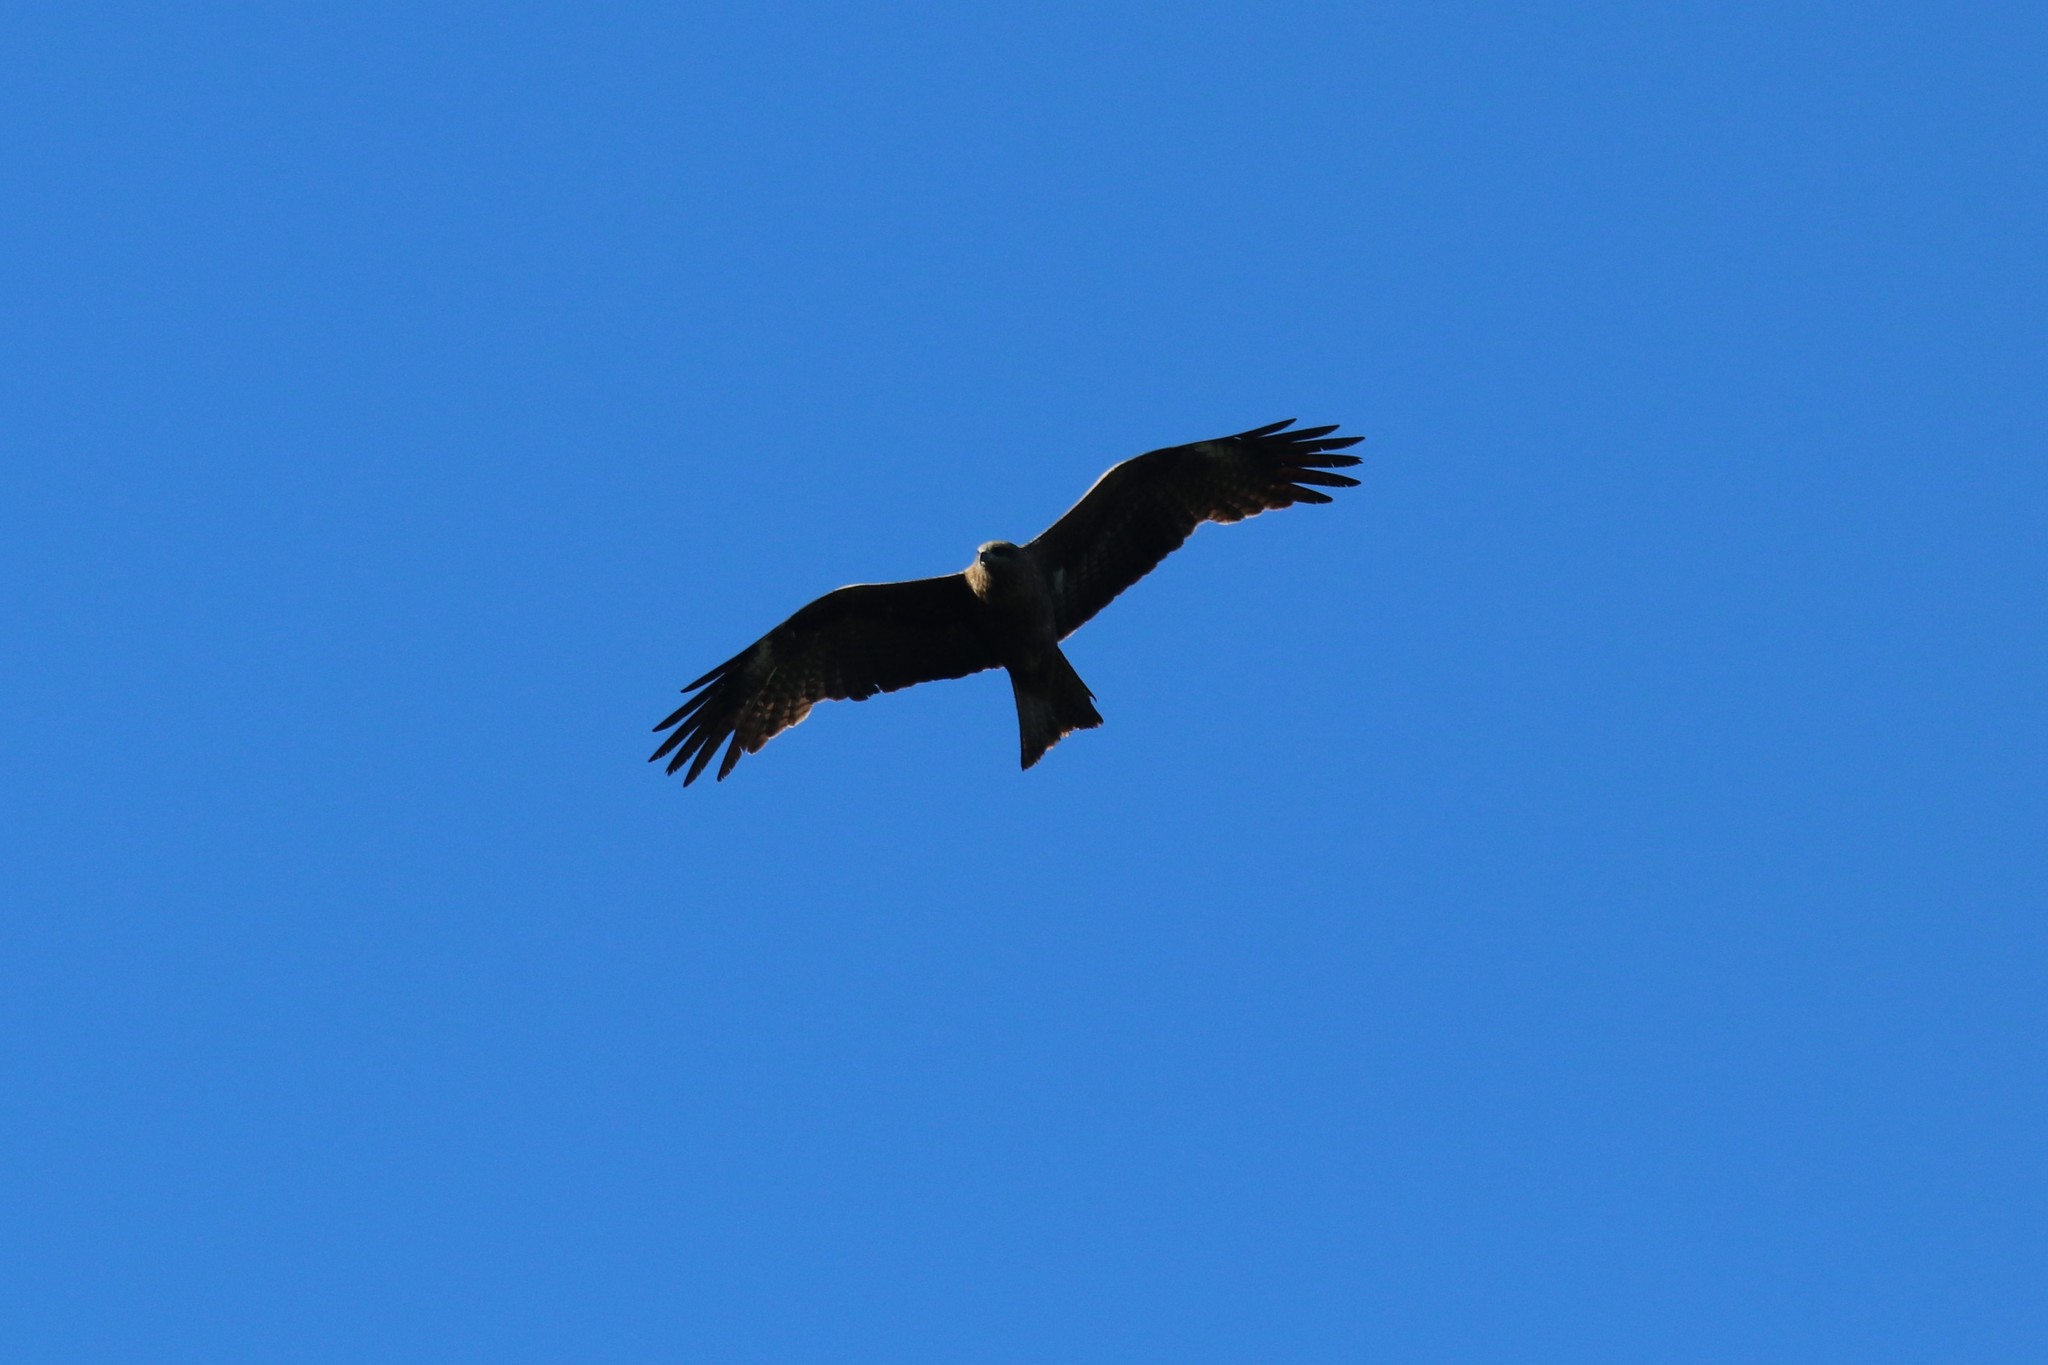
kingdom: Animalia
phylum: Chordata
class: Aves
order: Accipitriformes
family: Accipitridae
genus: Milvus
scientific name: Milvus migrans
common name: Black kite
